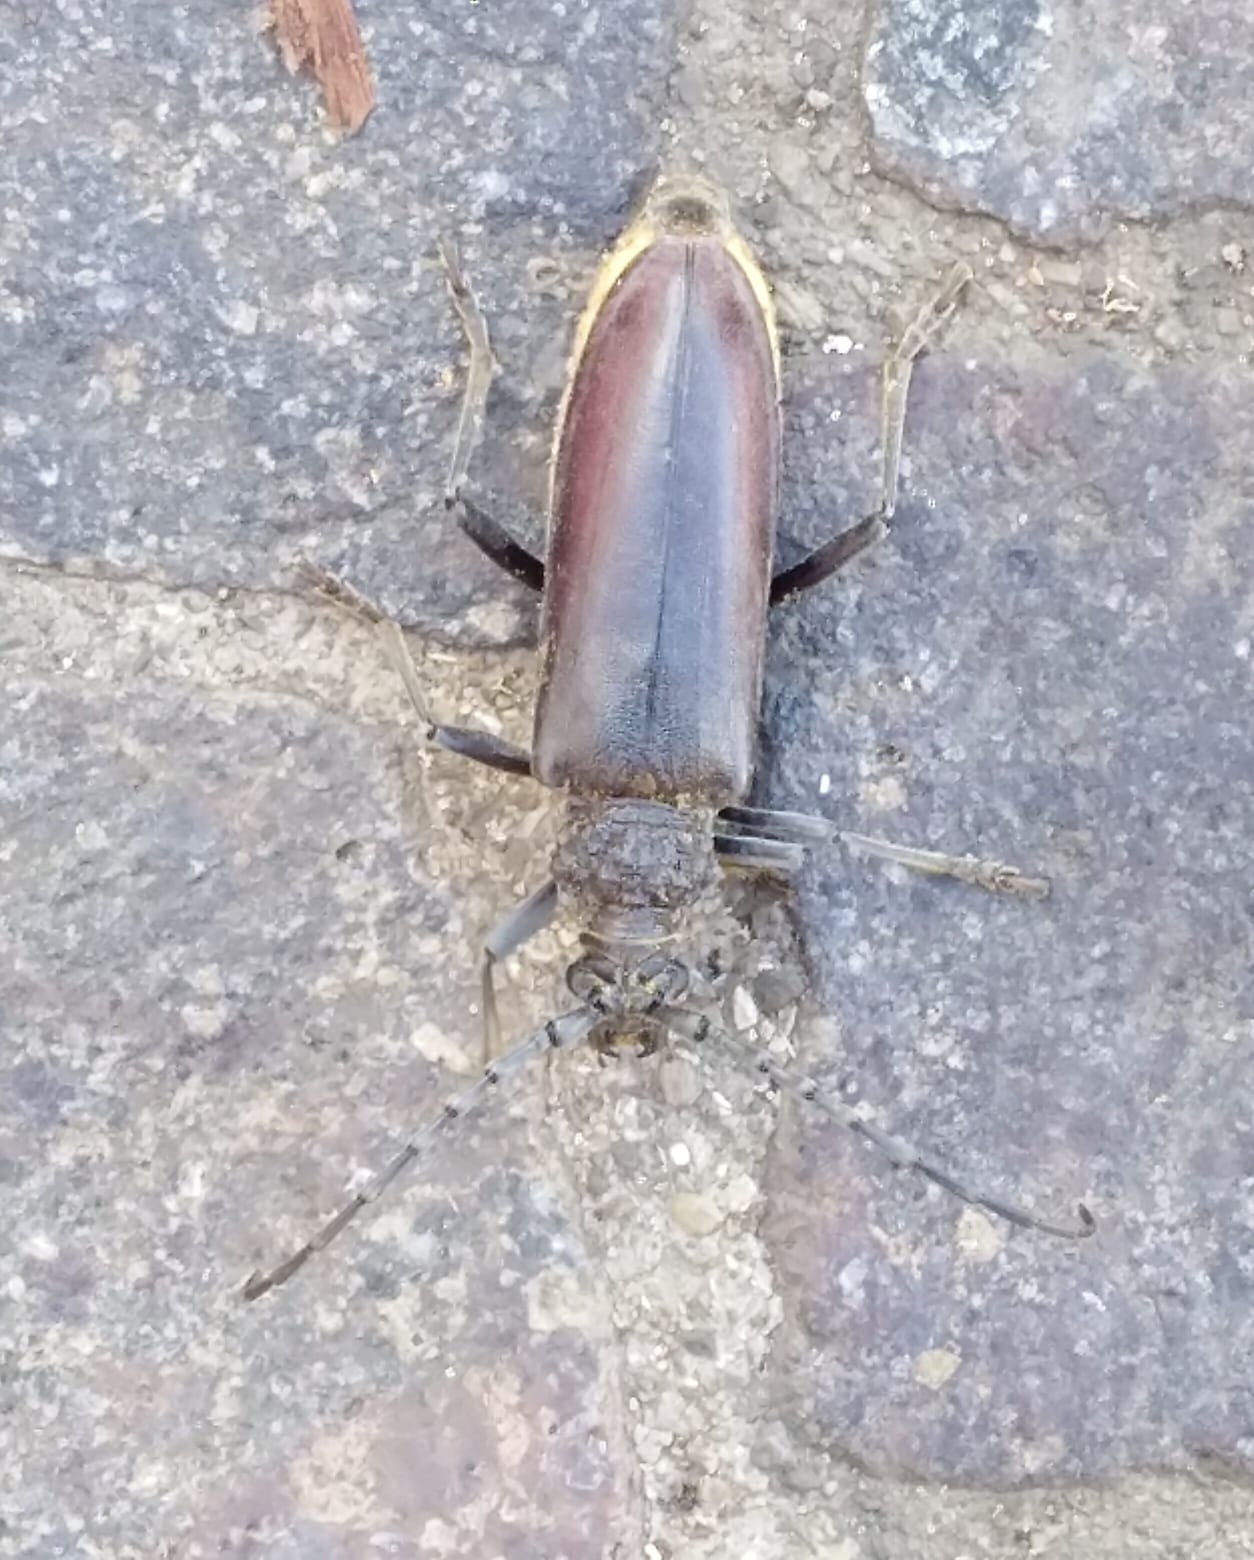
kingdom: Animalia
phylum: Arthropoda
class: Insecta
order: Coleoptera
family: Cerambycidae
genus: Cerambyx
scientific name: Cerambyx welensii
